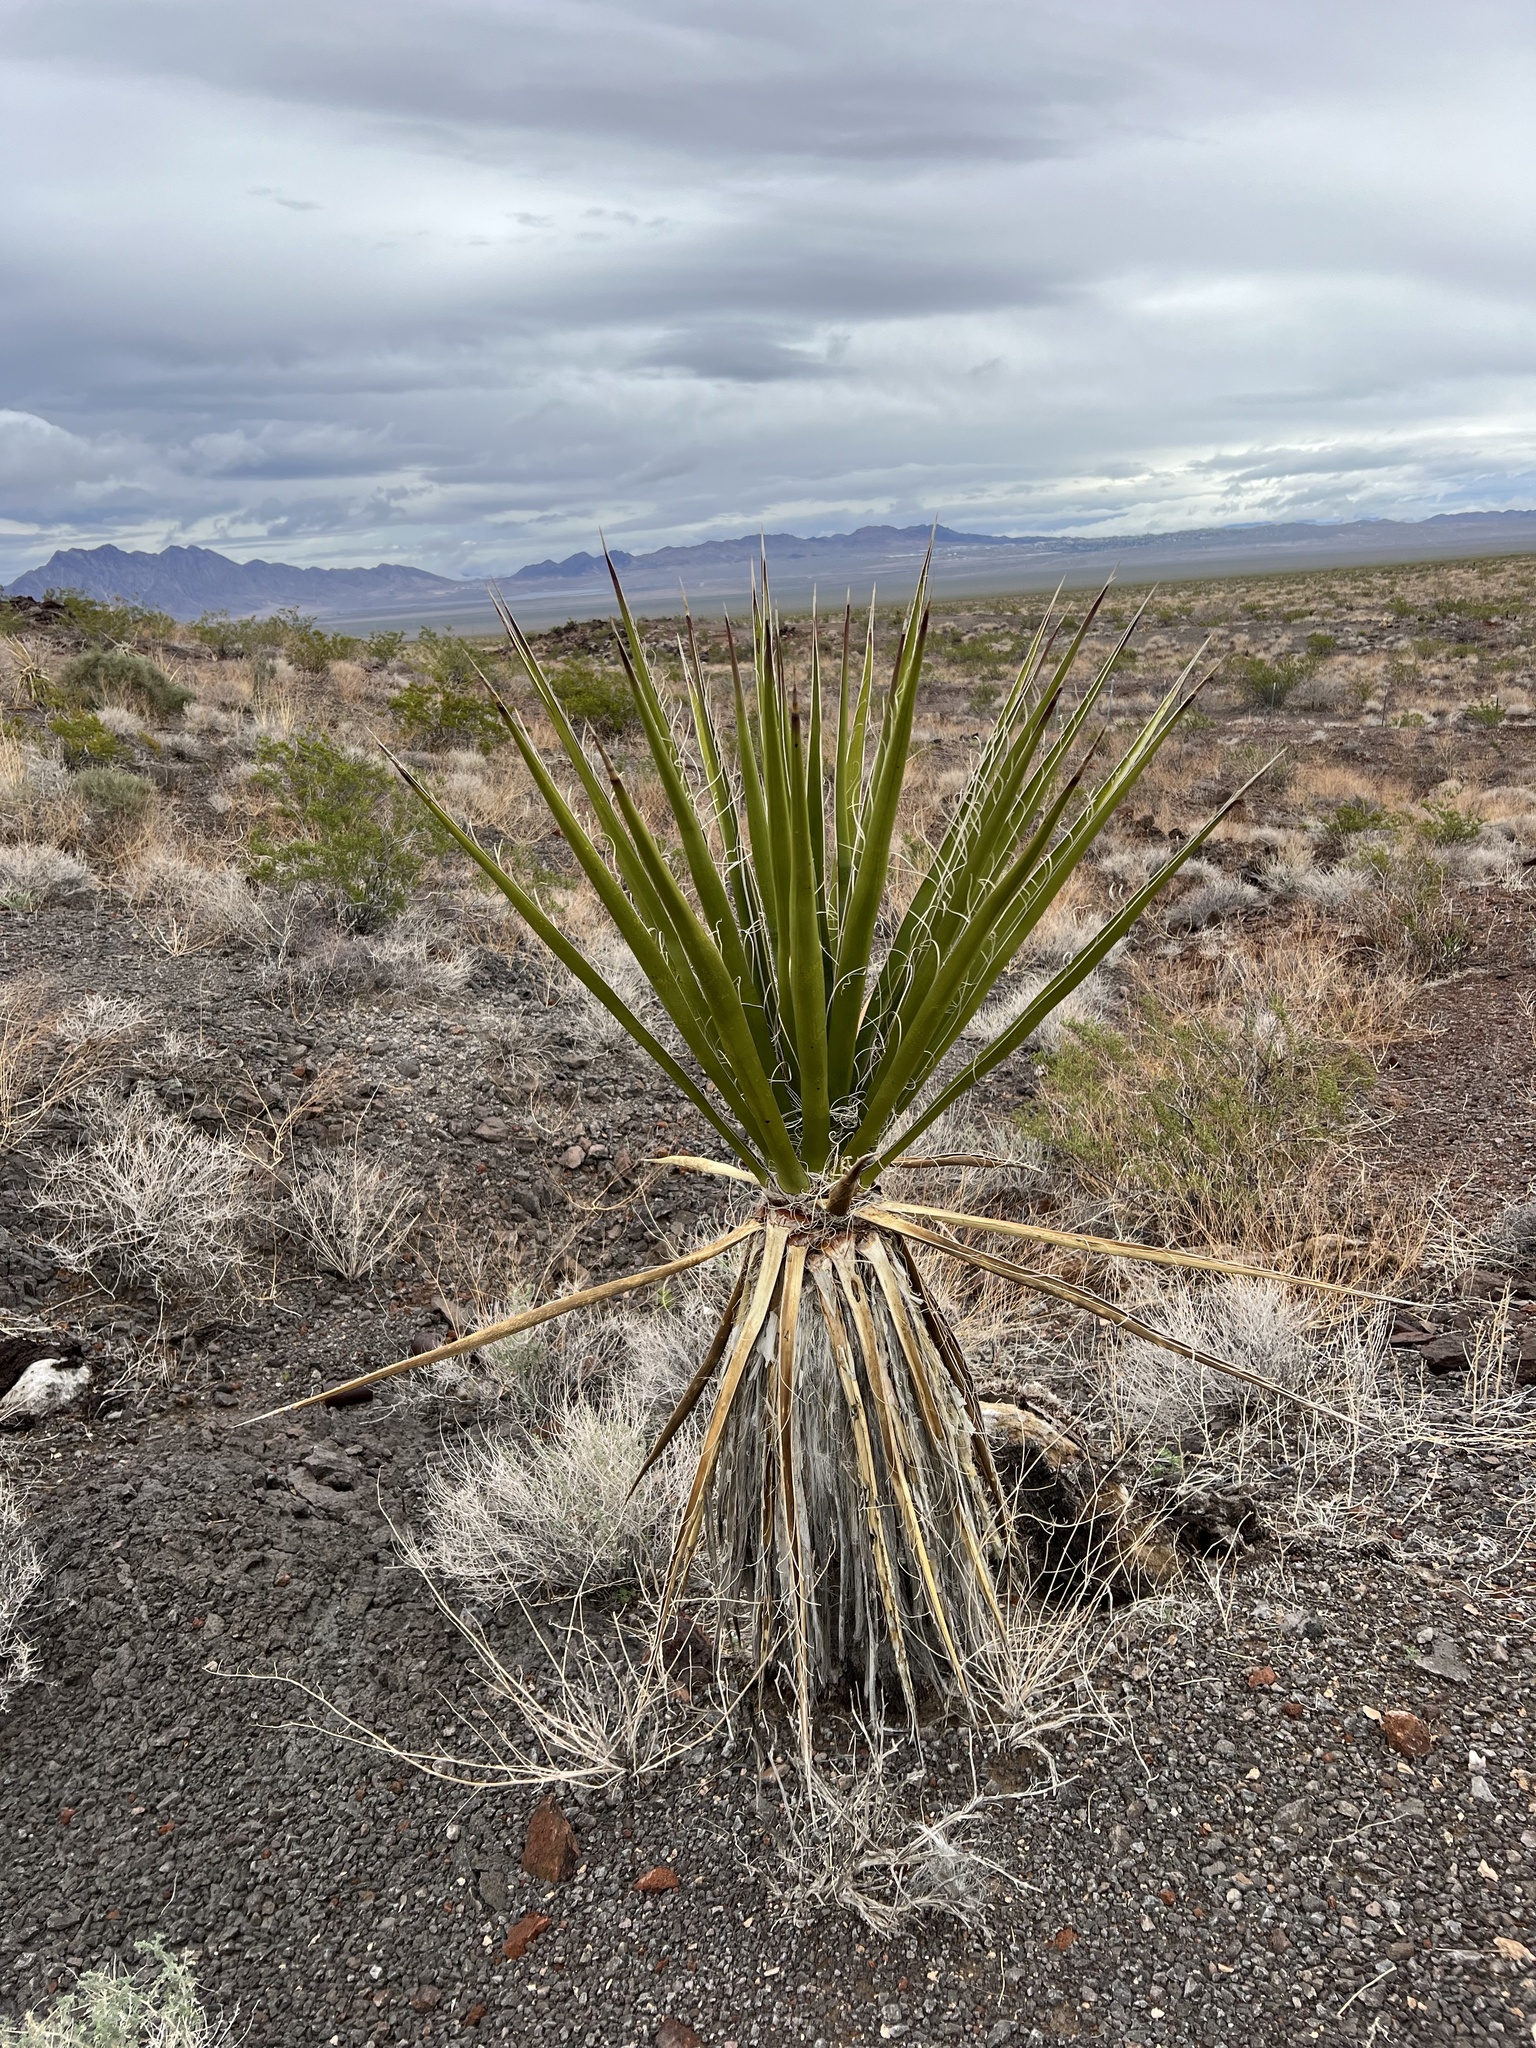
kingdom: Plantae
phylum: Tracheophyta
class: Liliopsida
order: Asparagales
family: Asparagaceae
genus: Yucca
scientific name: Yucca schidigera
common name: Mojave yucca
